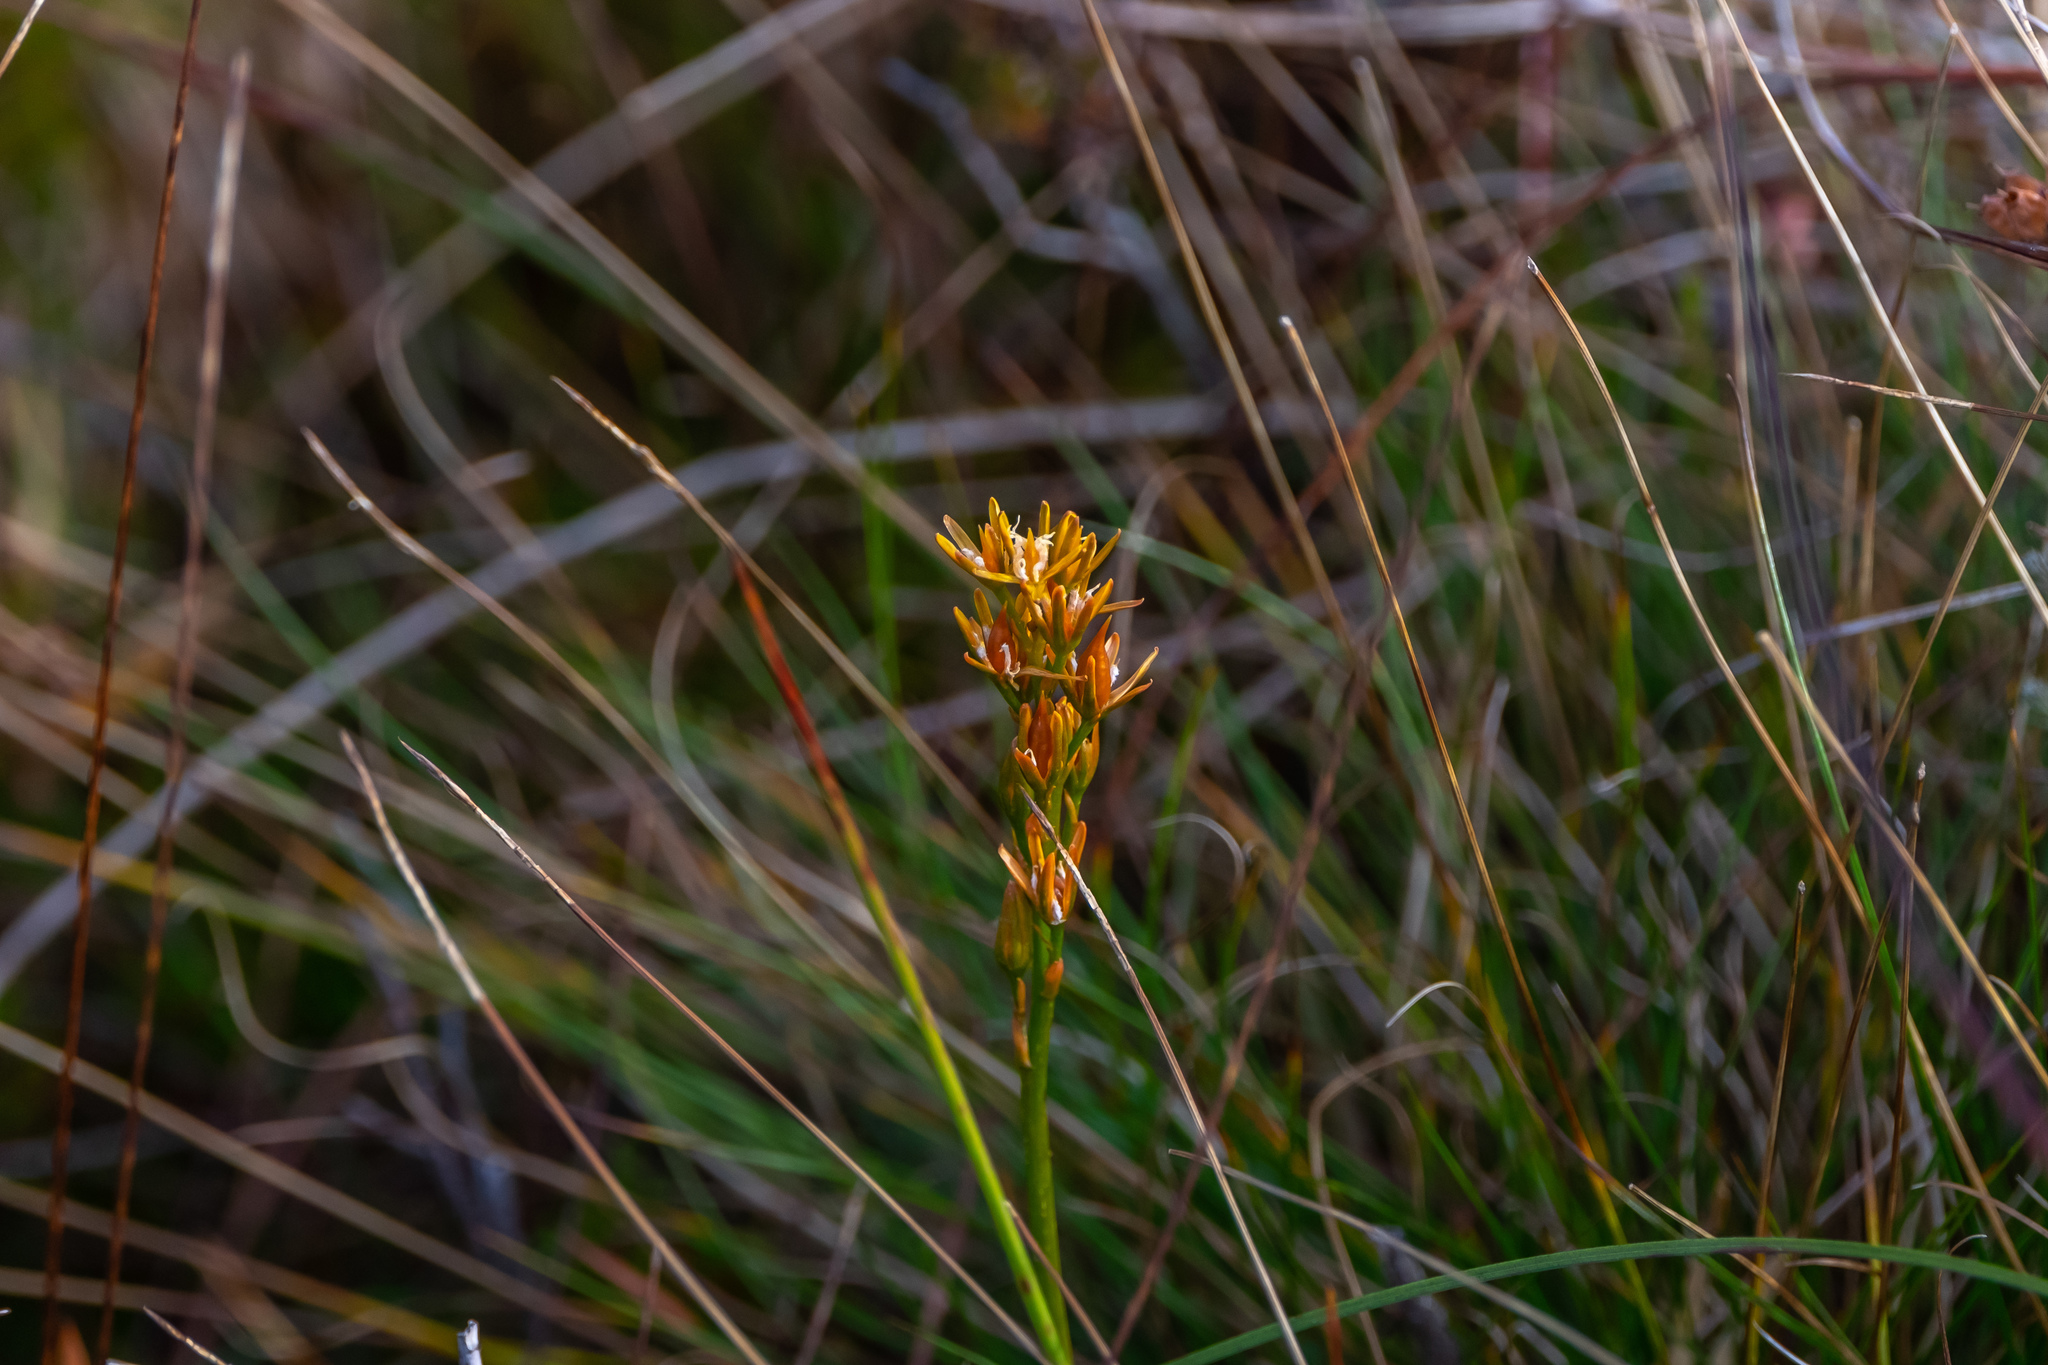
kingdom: Plantae
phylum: Tracheophyta
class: Liliopsida
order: Dioscoreales
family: Nartheciaceae
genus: Narthecium
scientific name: Narthecium ossifragum
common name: Bog asphodel
